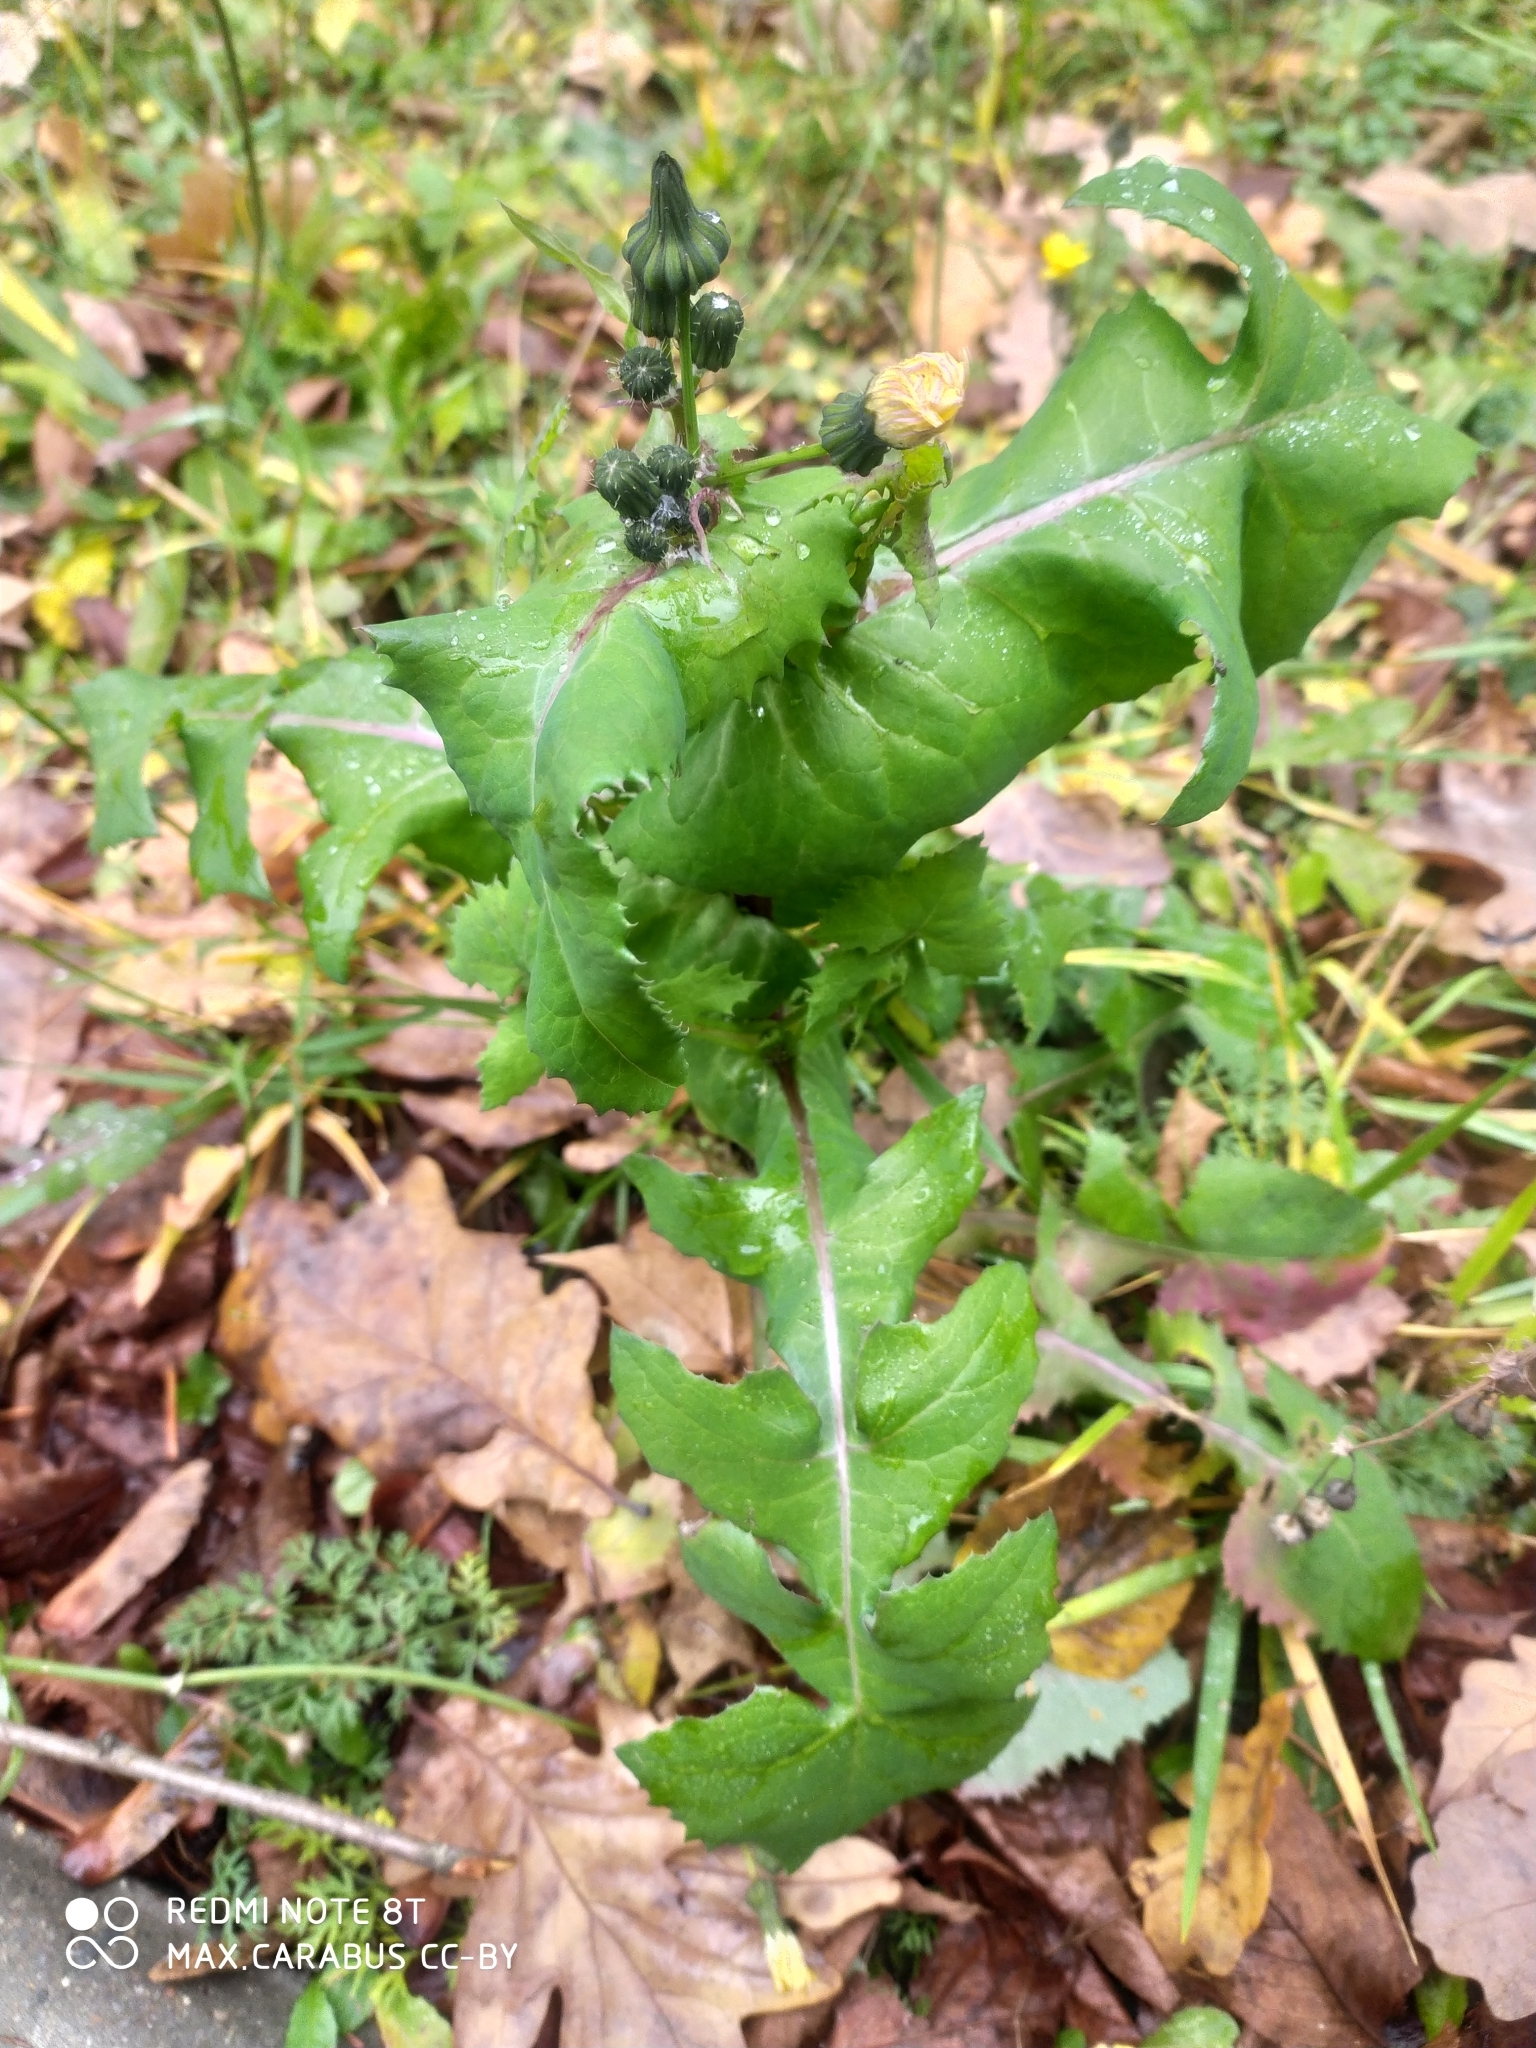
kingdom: Plantae
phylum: Tracheophyta
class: Magnoliopsida
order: Asterales
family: Asteraceae
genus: Sonchus
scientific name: Sonchus oleraceus
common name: Common sowthistle
